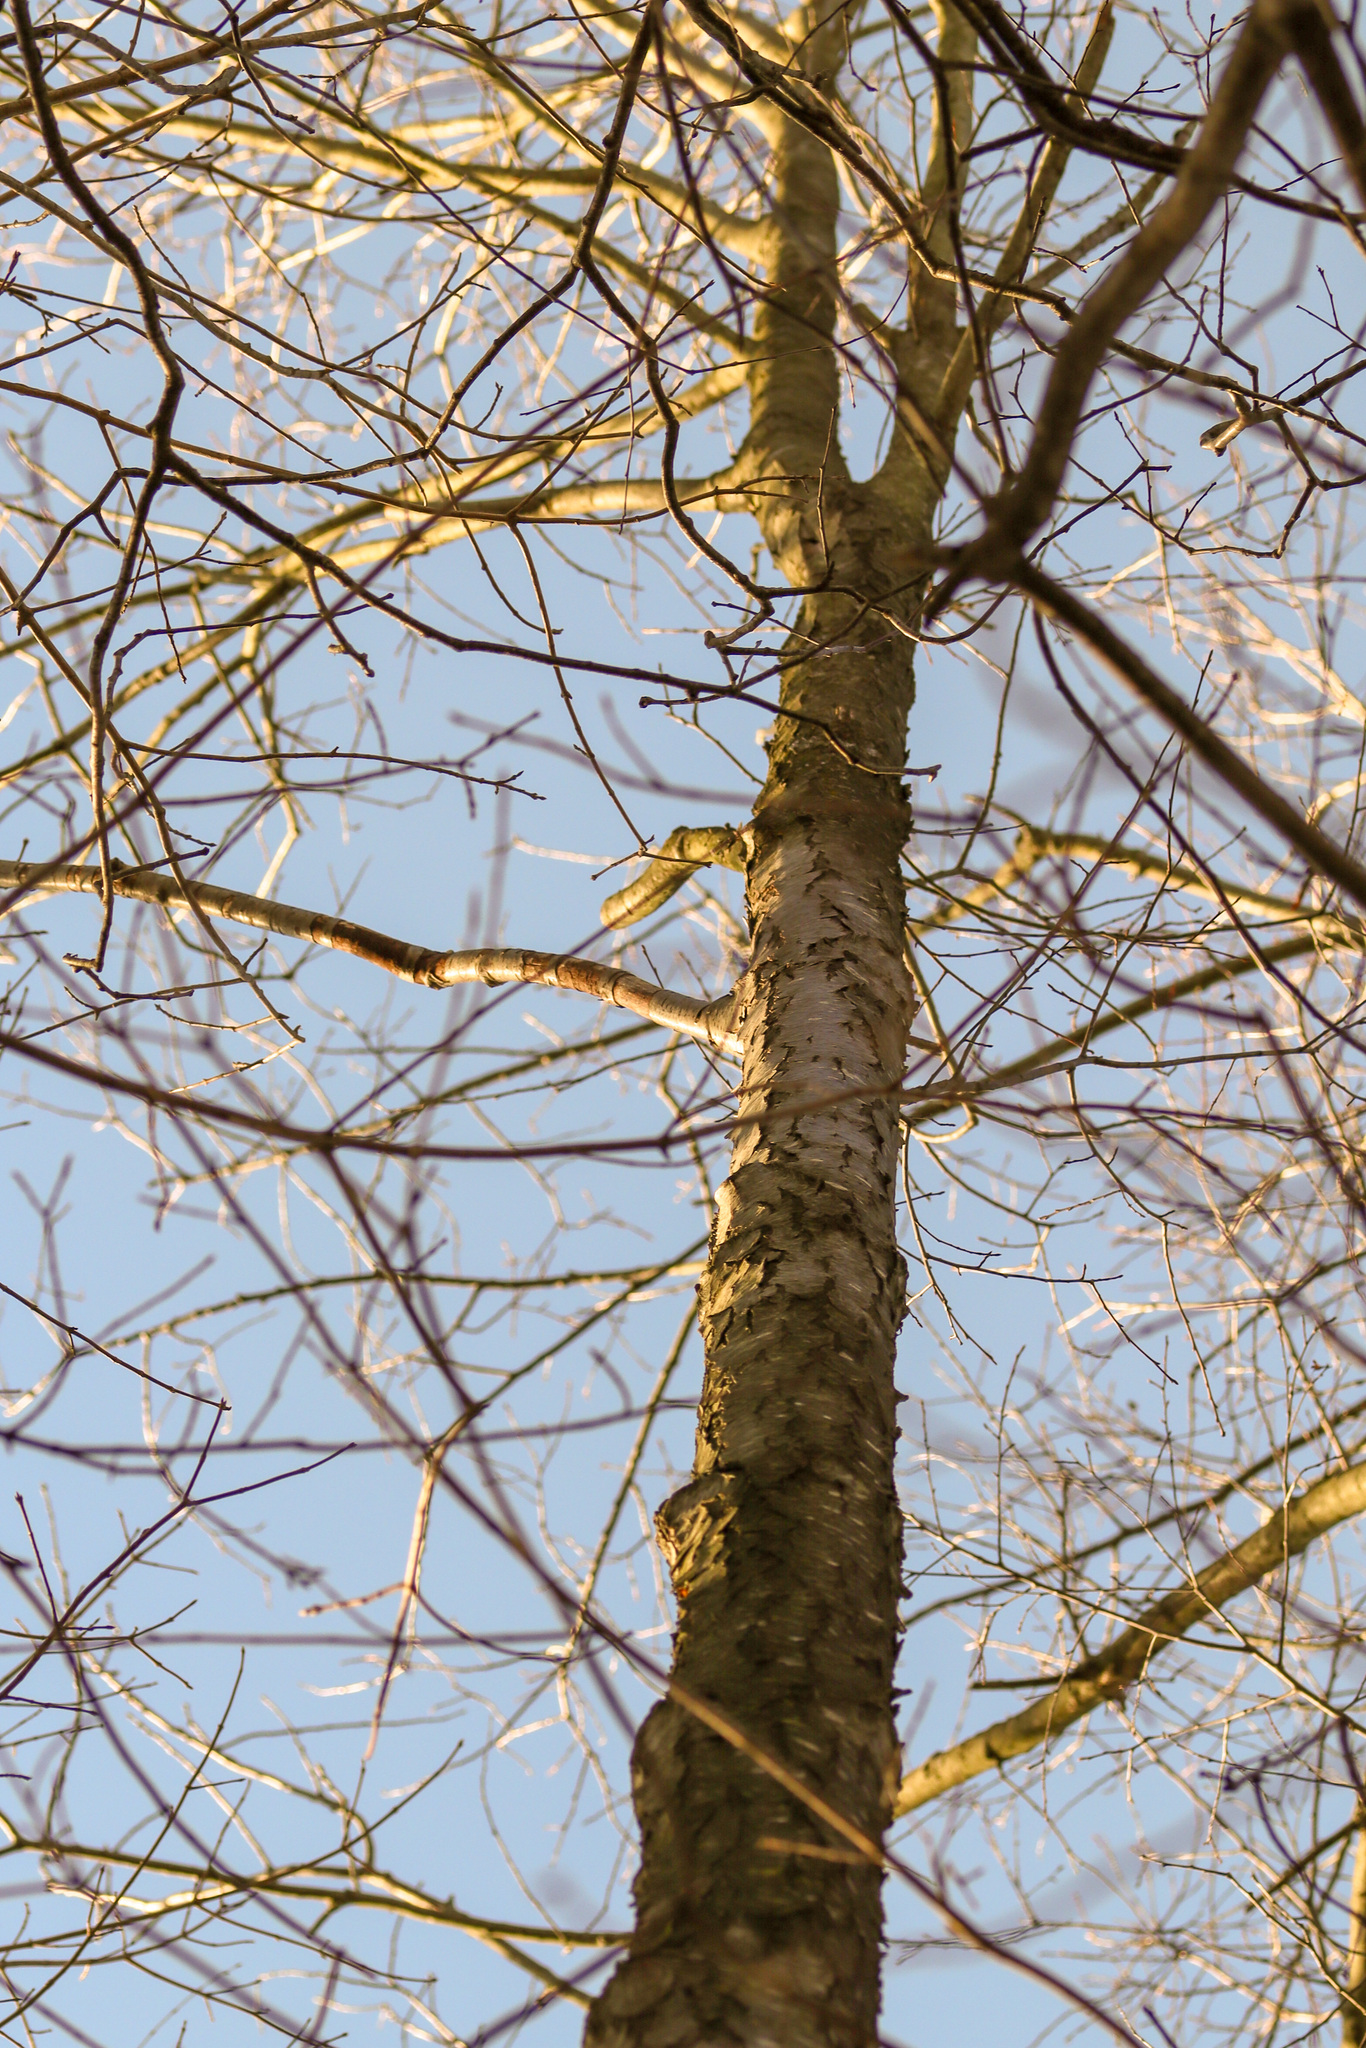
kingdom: Plantae
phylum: Tracheophyta
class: Magnoliopsida
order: Rosales
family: Rosaceae
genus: Prunus
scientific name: Prunus serotina
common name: Black cherry
